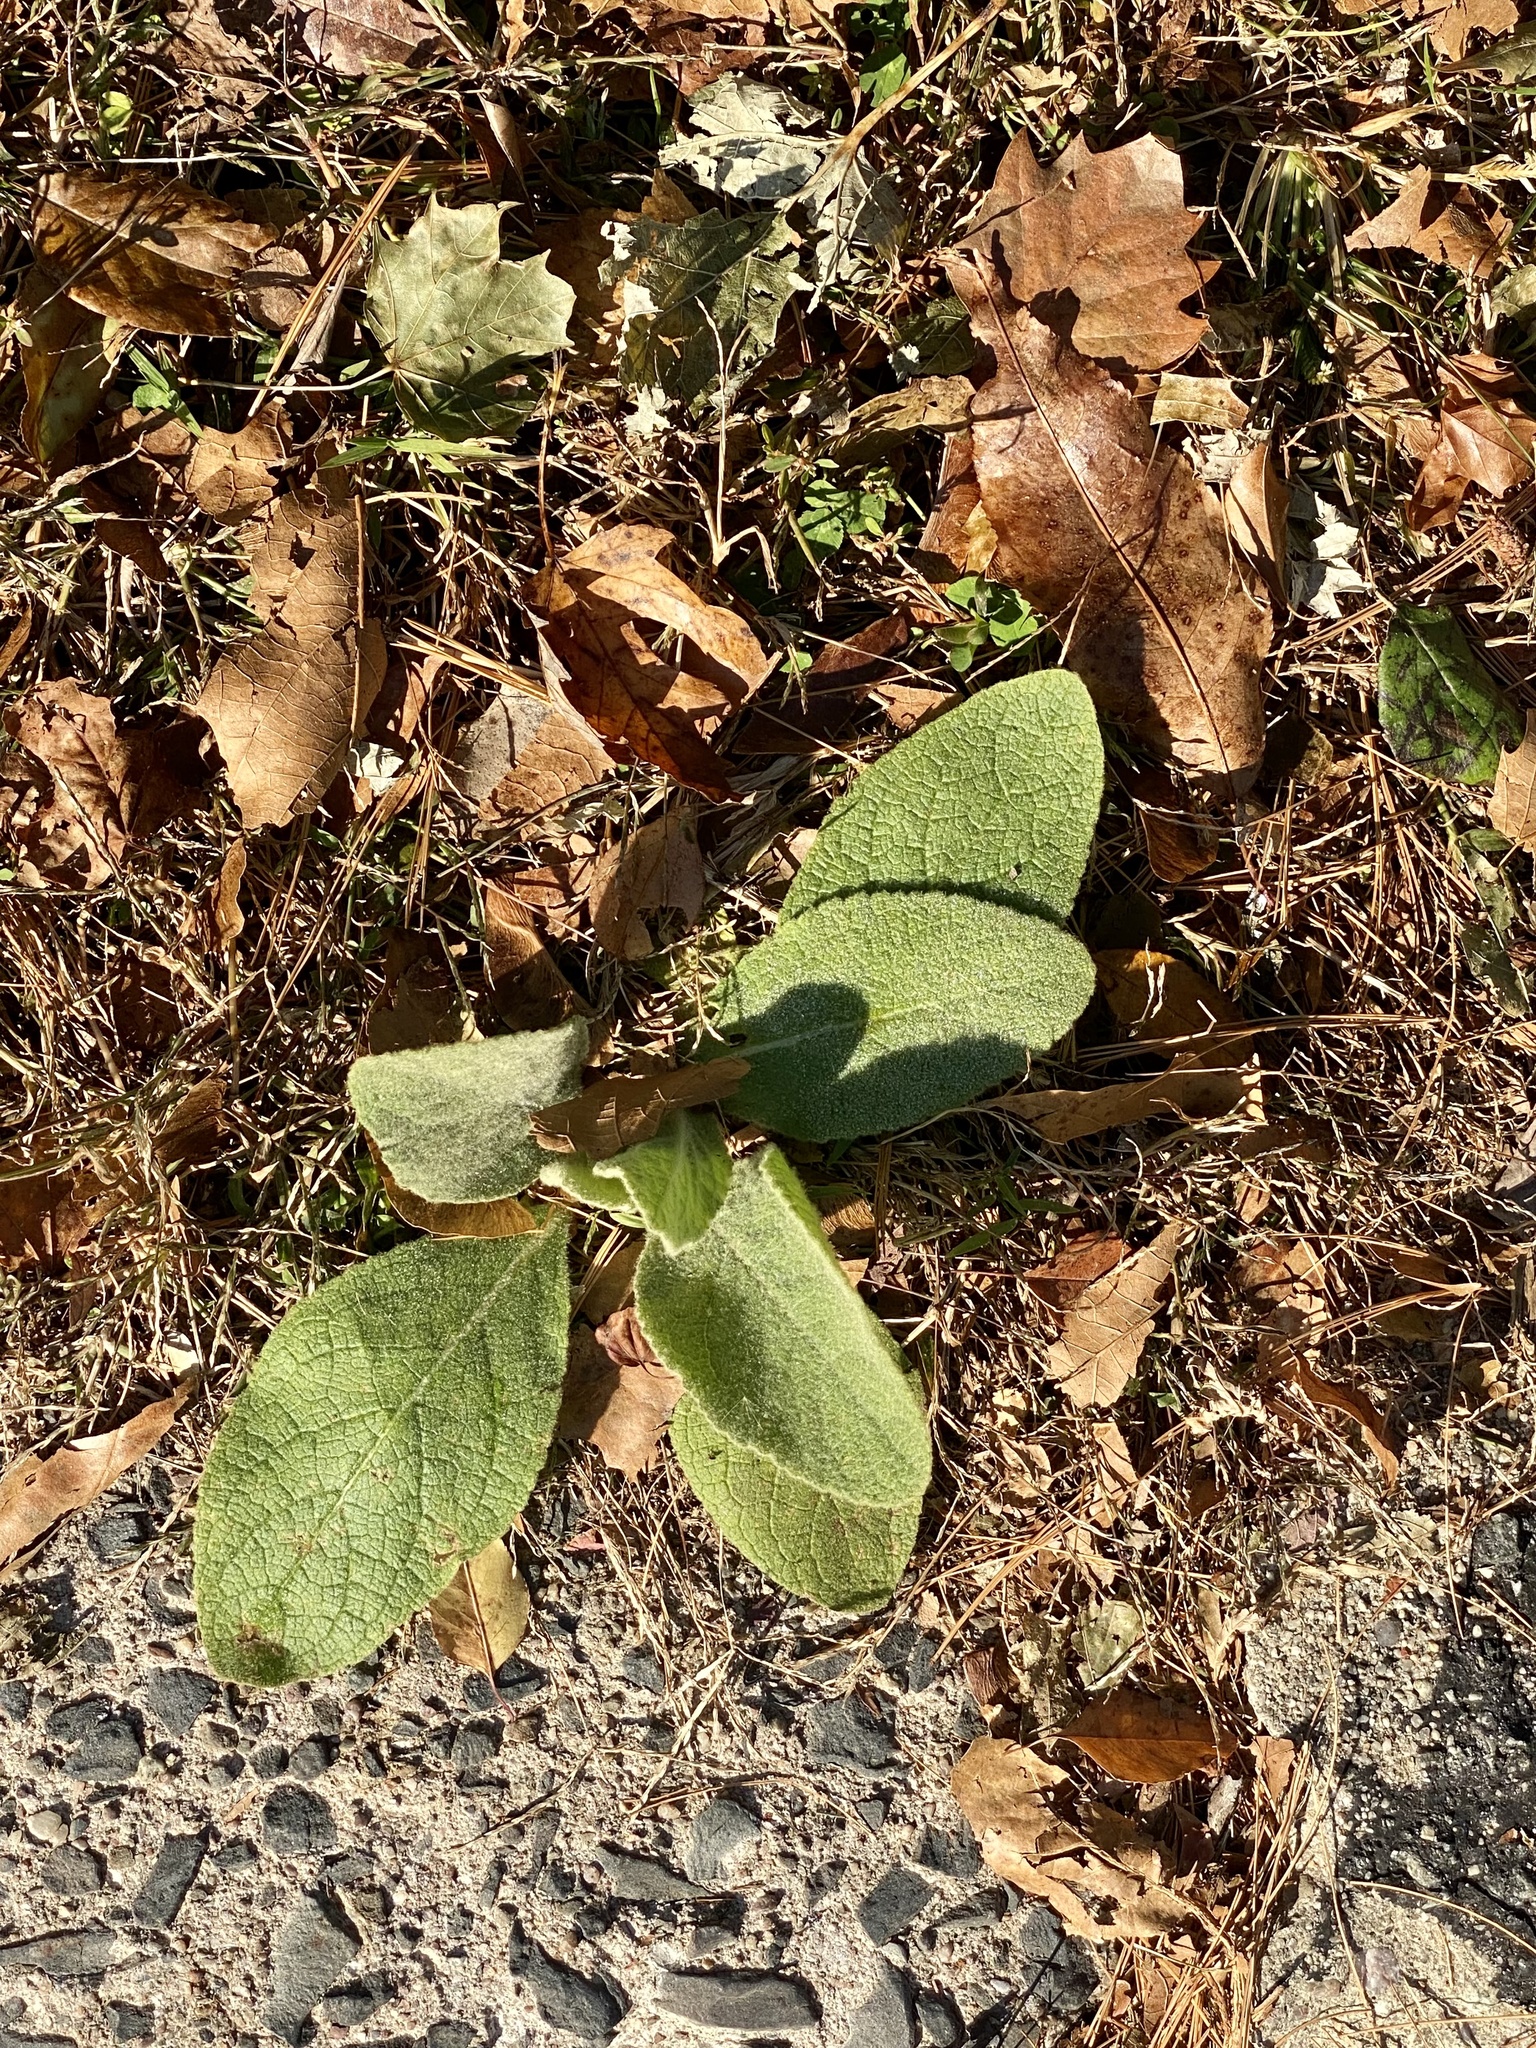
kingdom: Plantae
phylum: Tracheophyta
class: Magnoliopsida
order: Lamiales
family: Scrophulariaceae
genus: Verbascum
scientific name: Verbascum thapsus
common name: Common mullein
